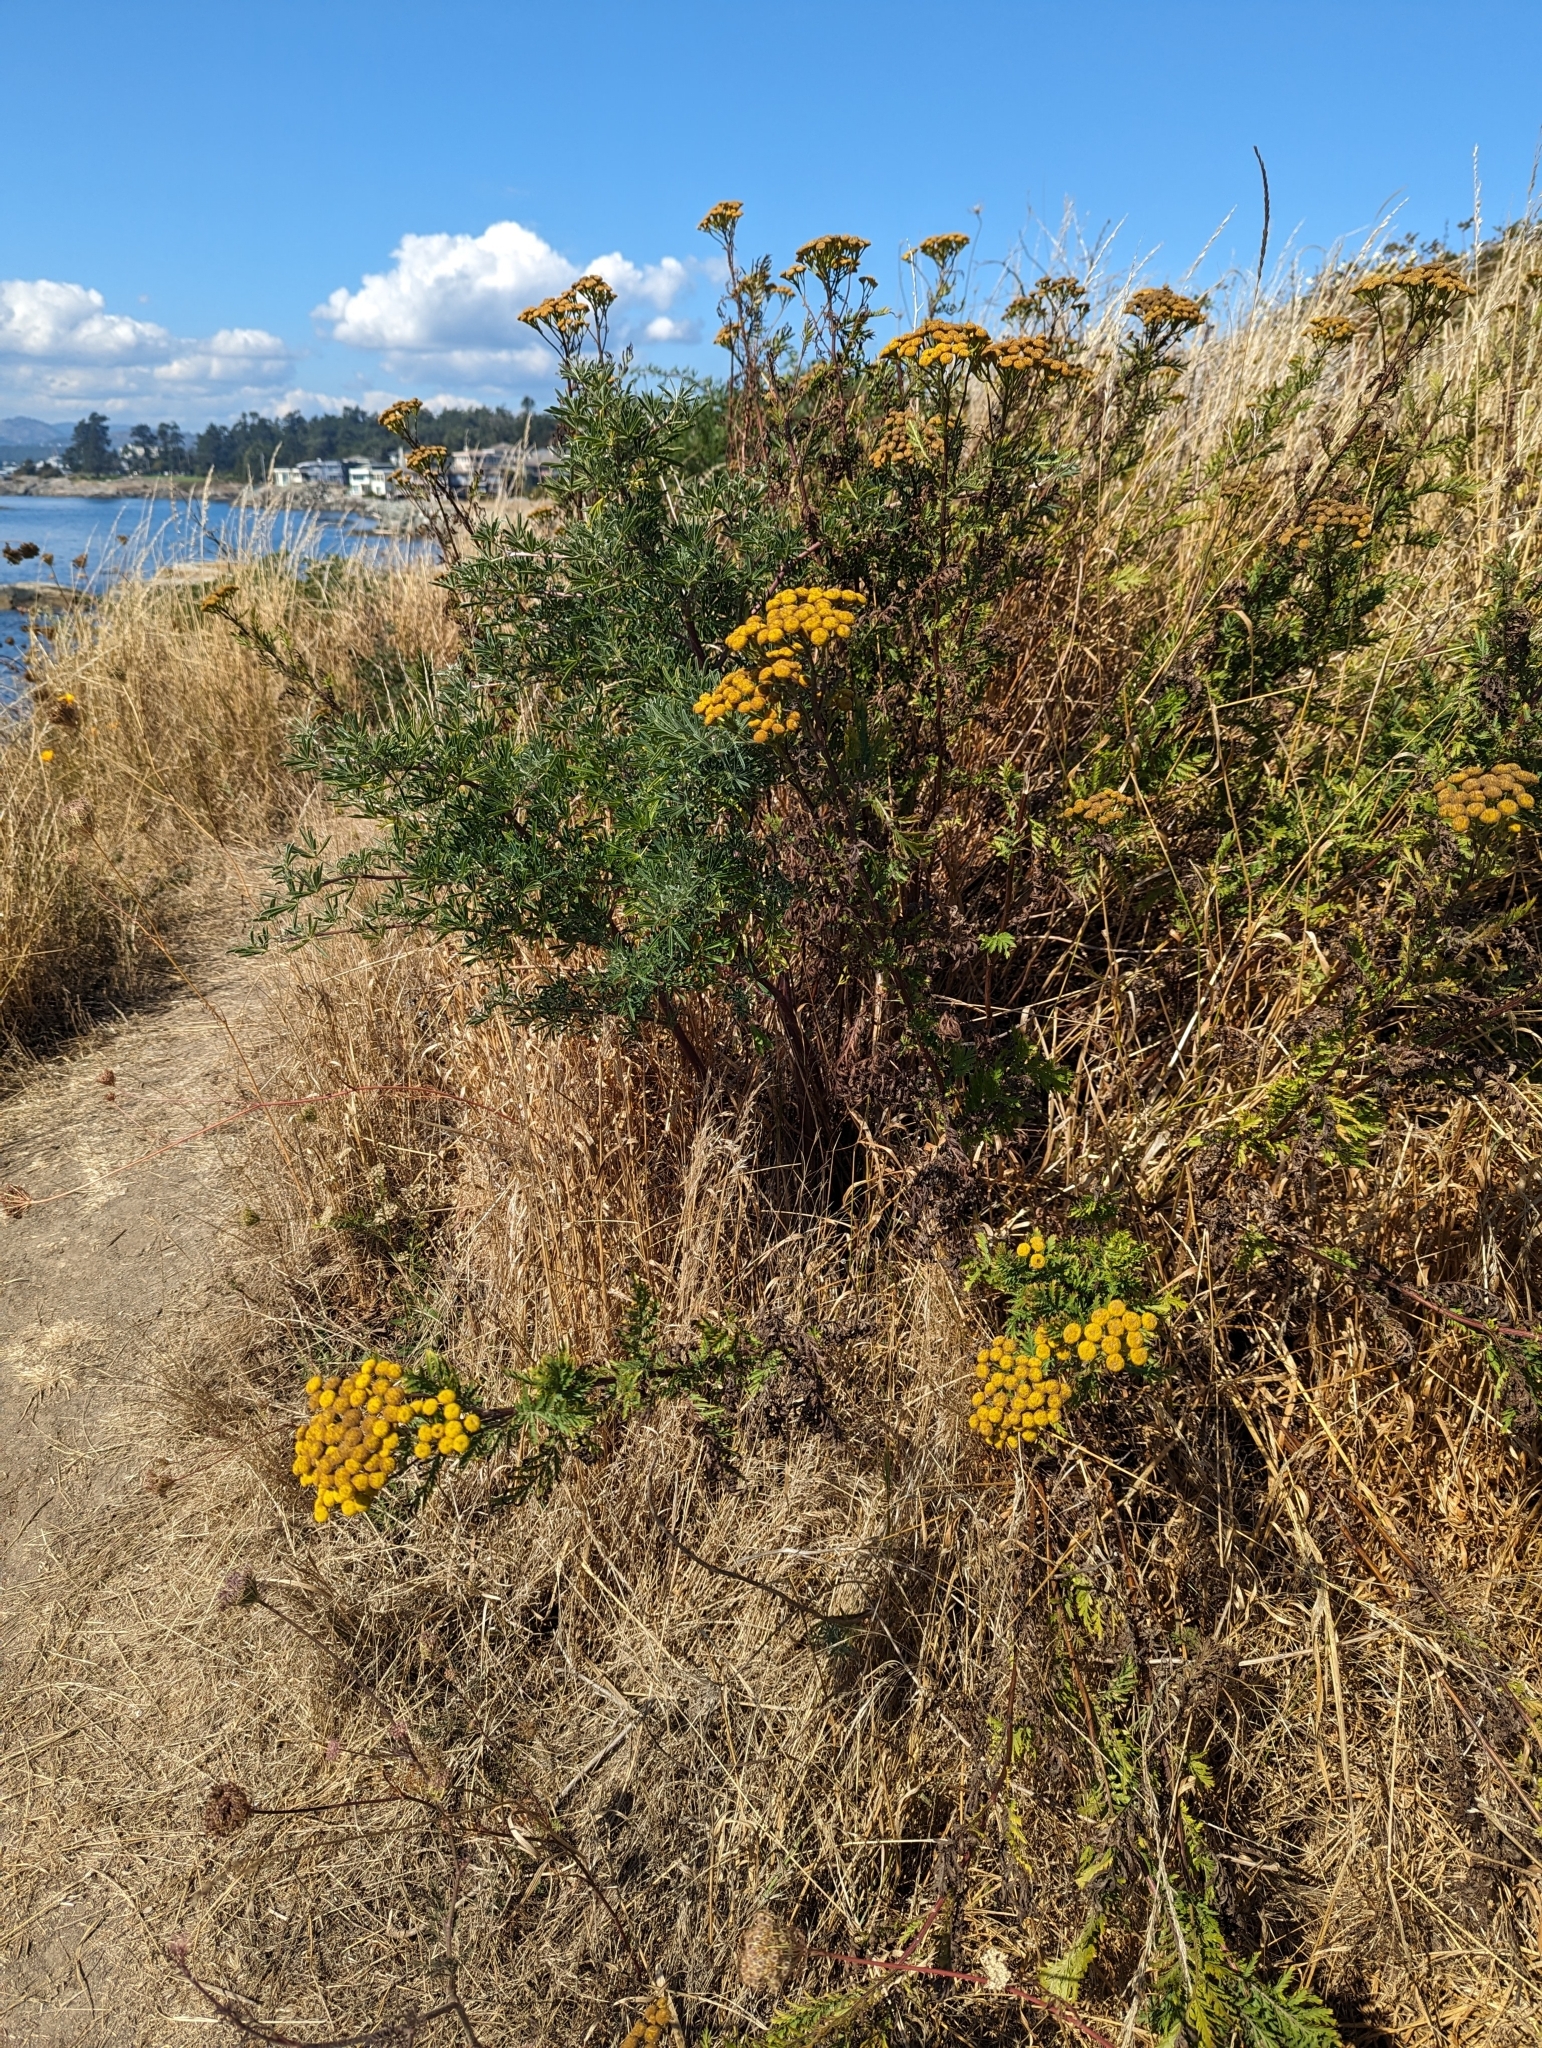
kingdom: Plantae
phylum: Tracheophyta
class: Magnoliopsida
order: Asterales
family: Asteraceae
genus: Tanacetum
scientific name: Tanacetum vulgare
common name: Common tansy
